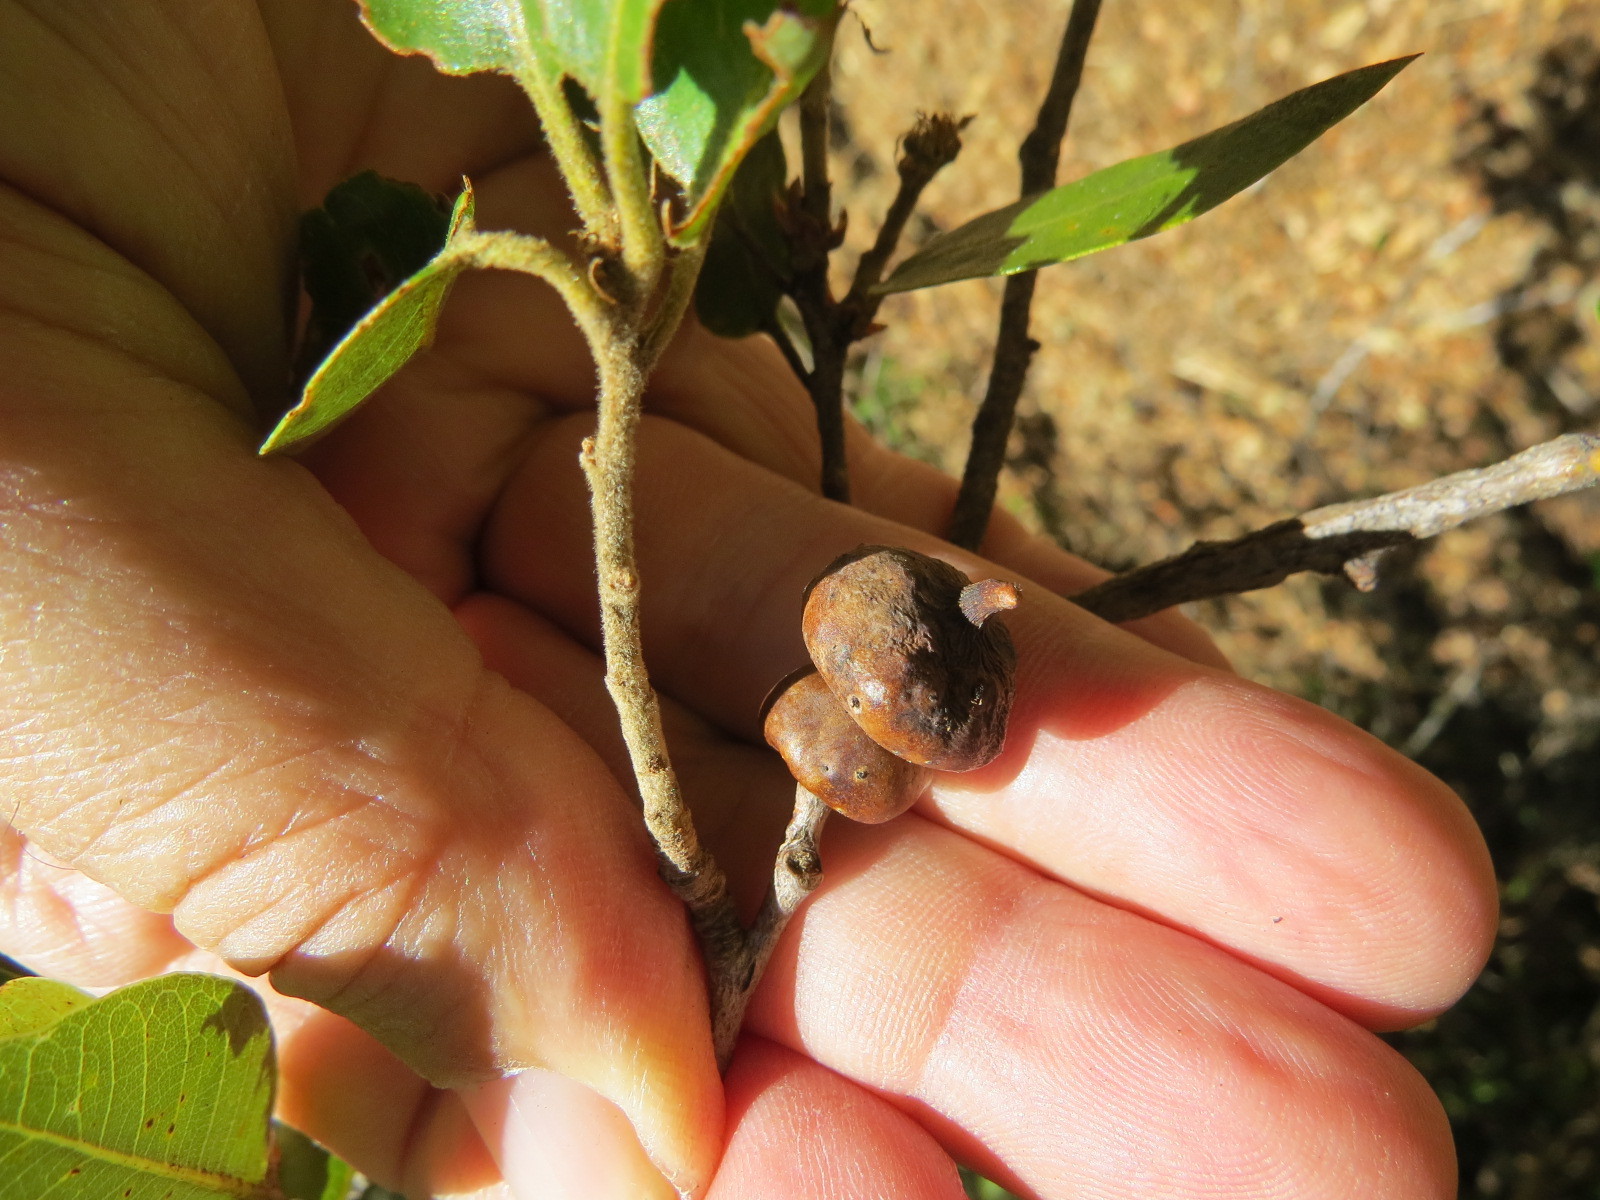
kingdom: Animalia
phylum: Arthropoda
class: Insecta
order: Hymenoptera
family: Cynipidae
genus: Heteroecus
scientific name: Heteroecus
